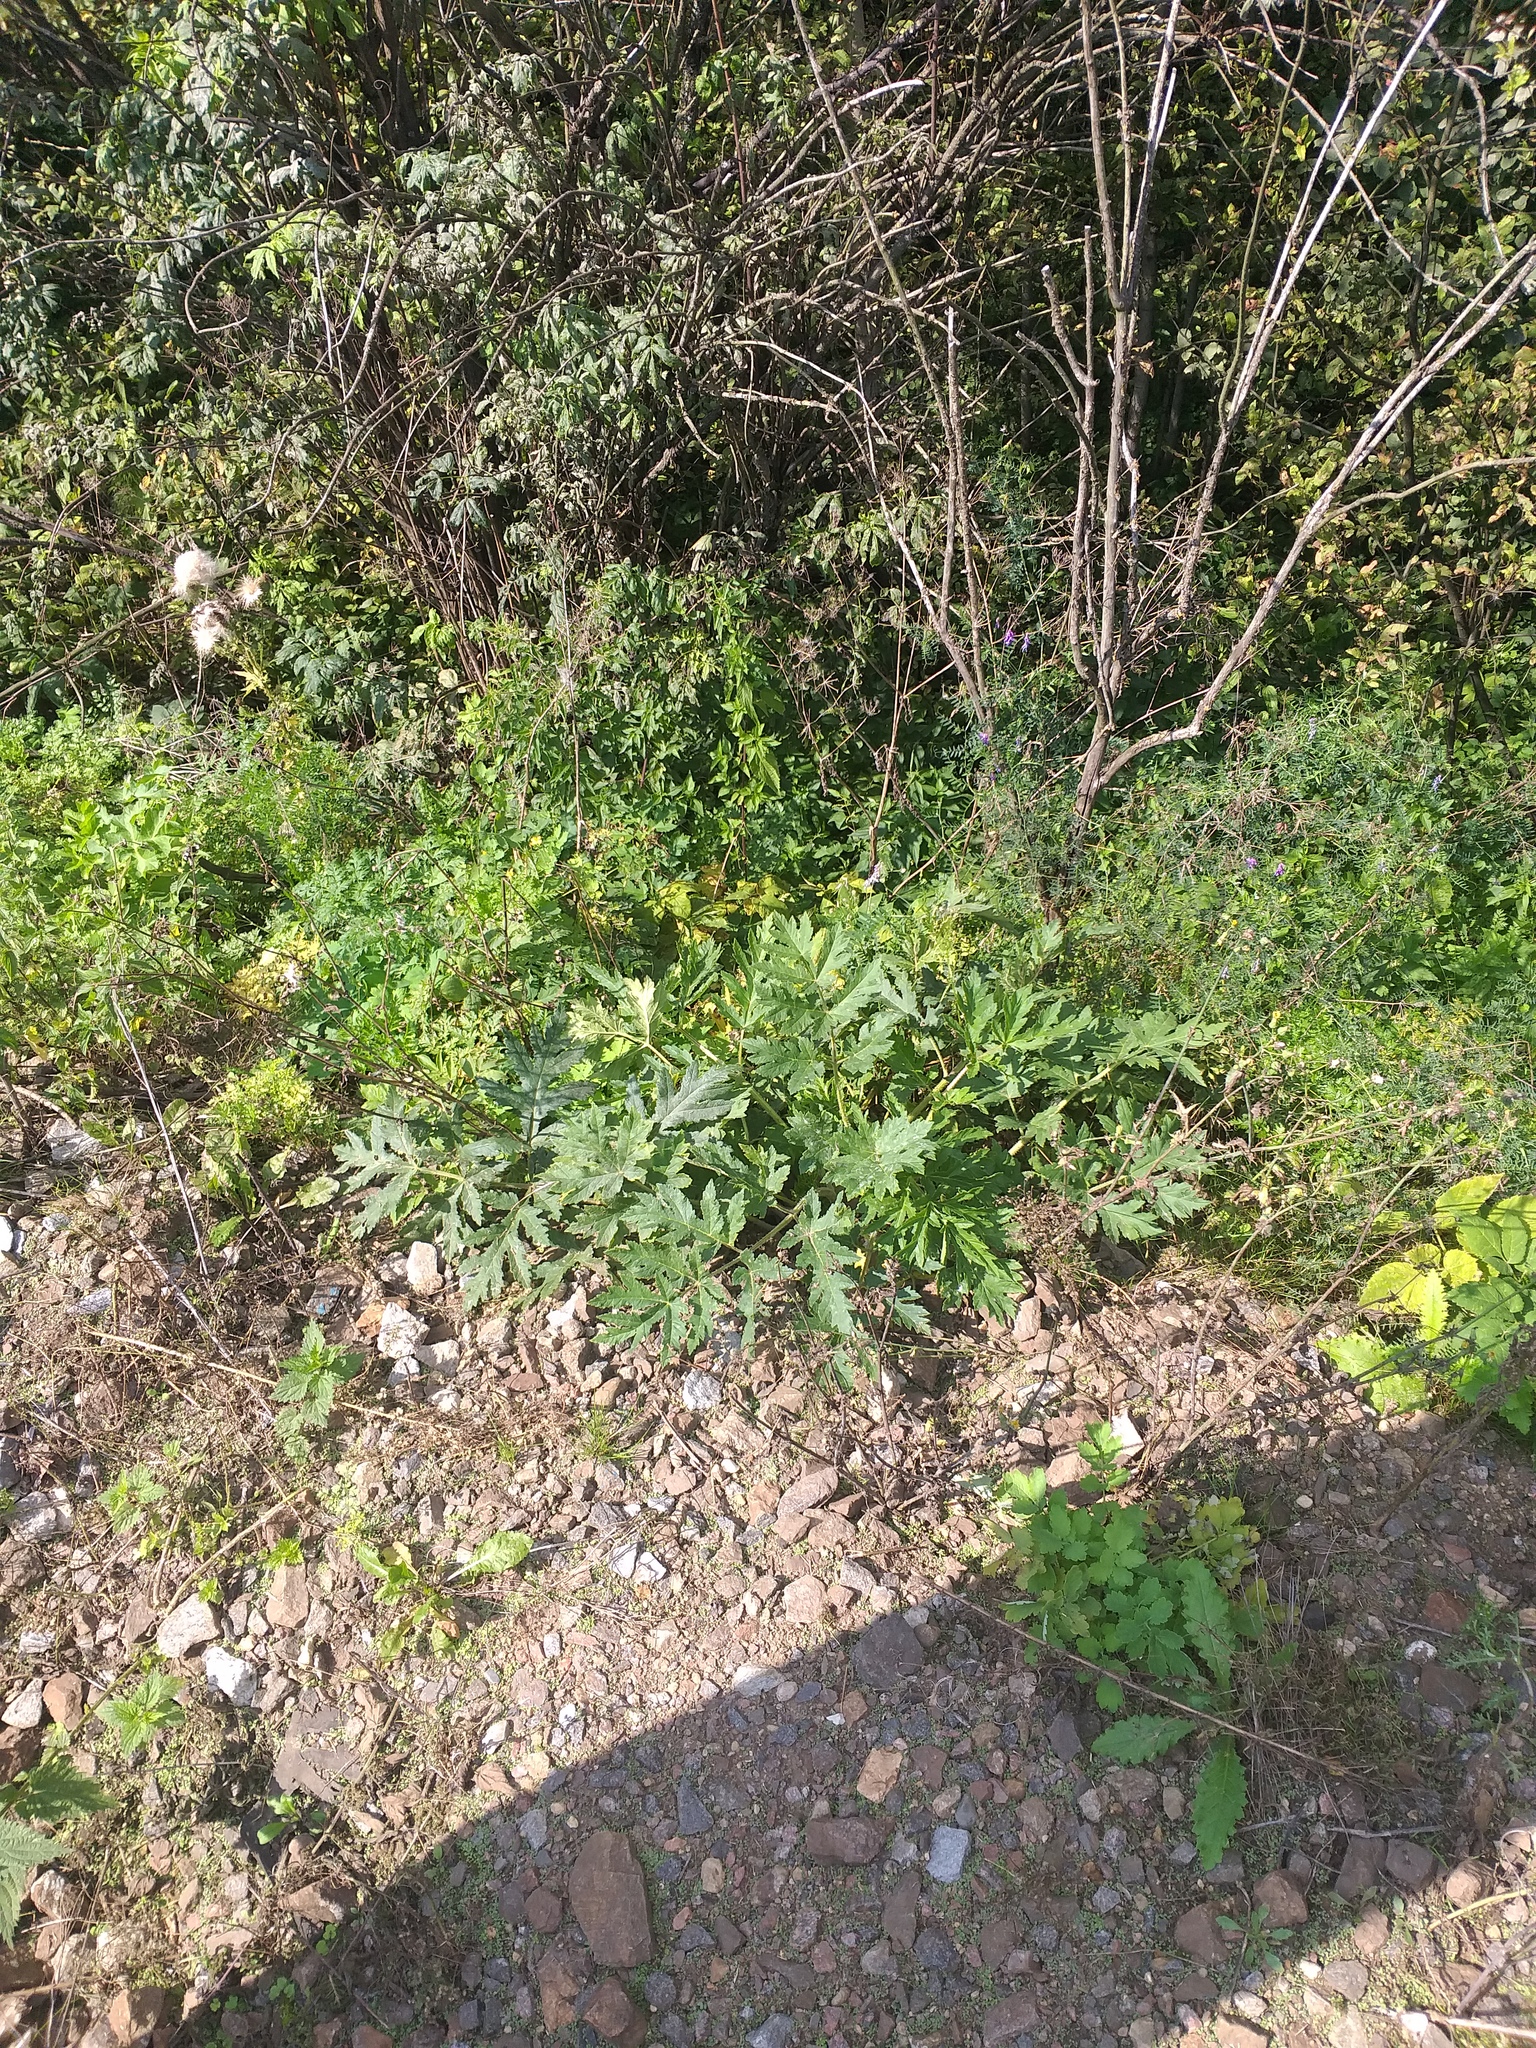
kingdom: Plantae
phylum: Tracheophyta
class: Magnoliopsida
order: Apiales
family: Apiaceae
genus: Heracleum
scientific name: Heracleum sphondylium
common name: Hogweed
